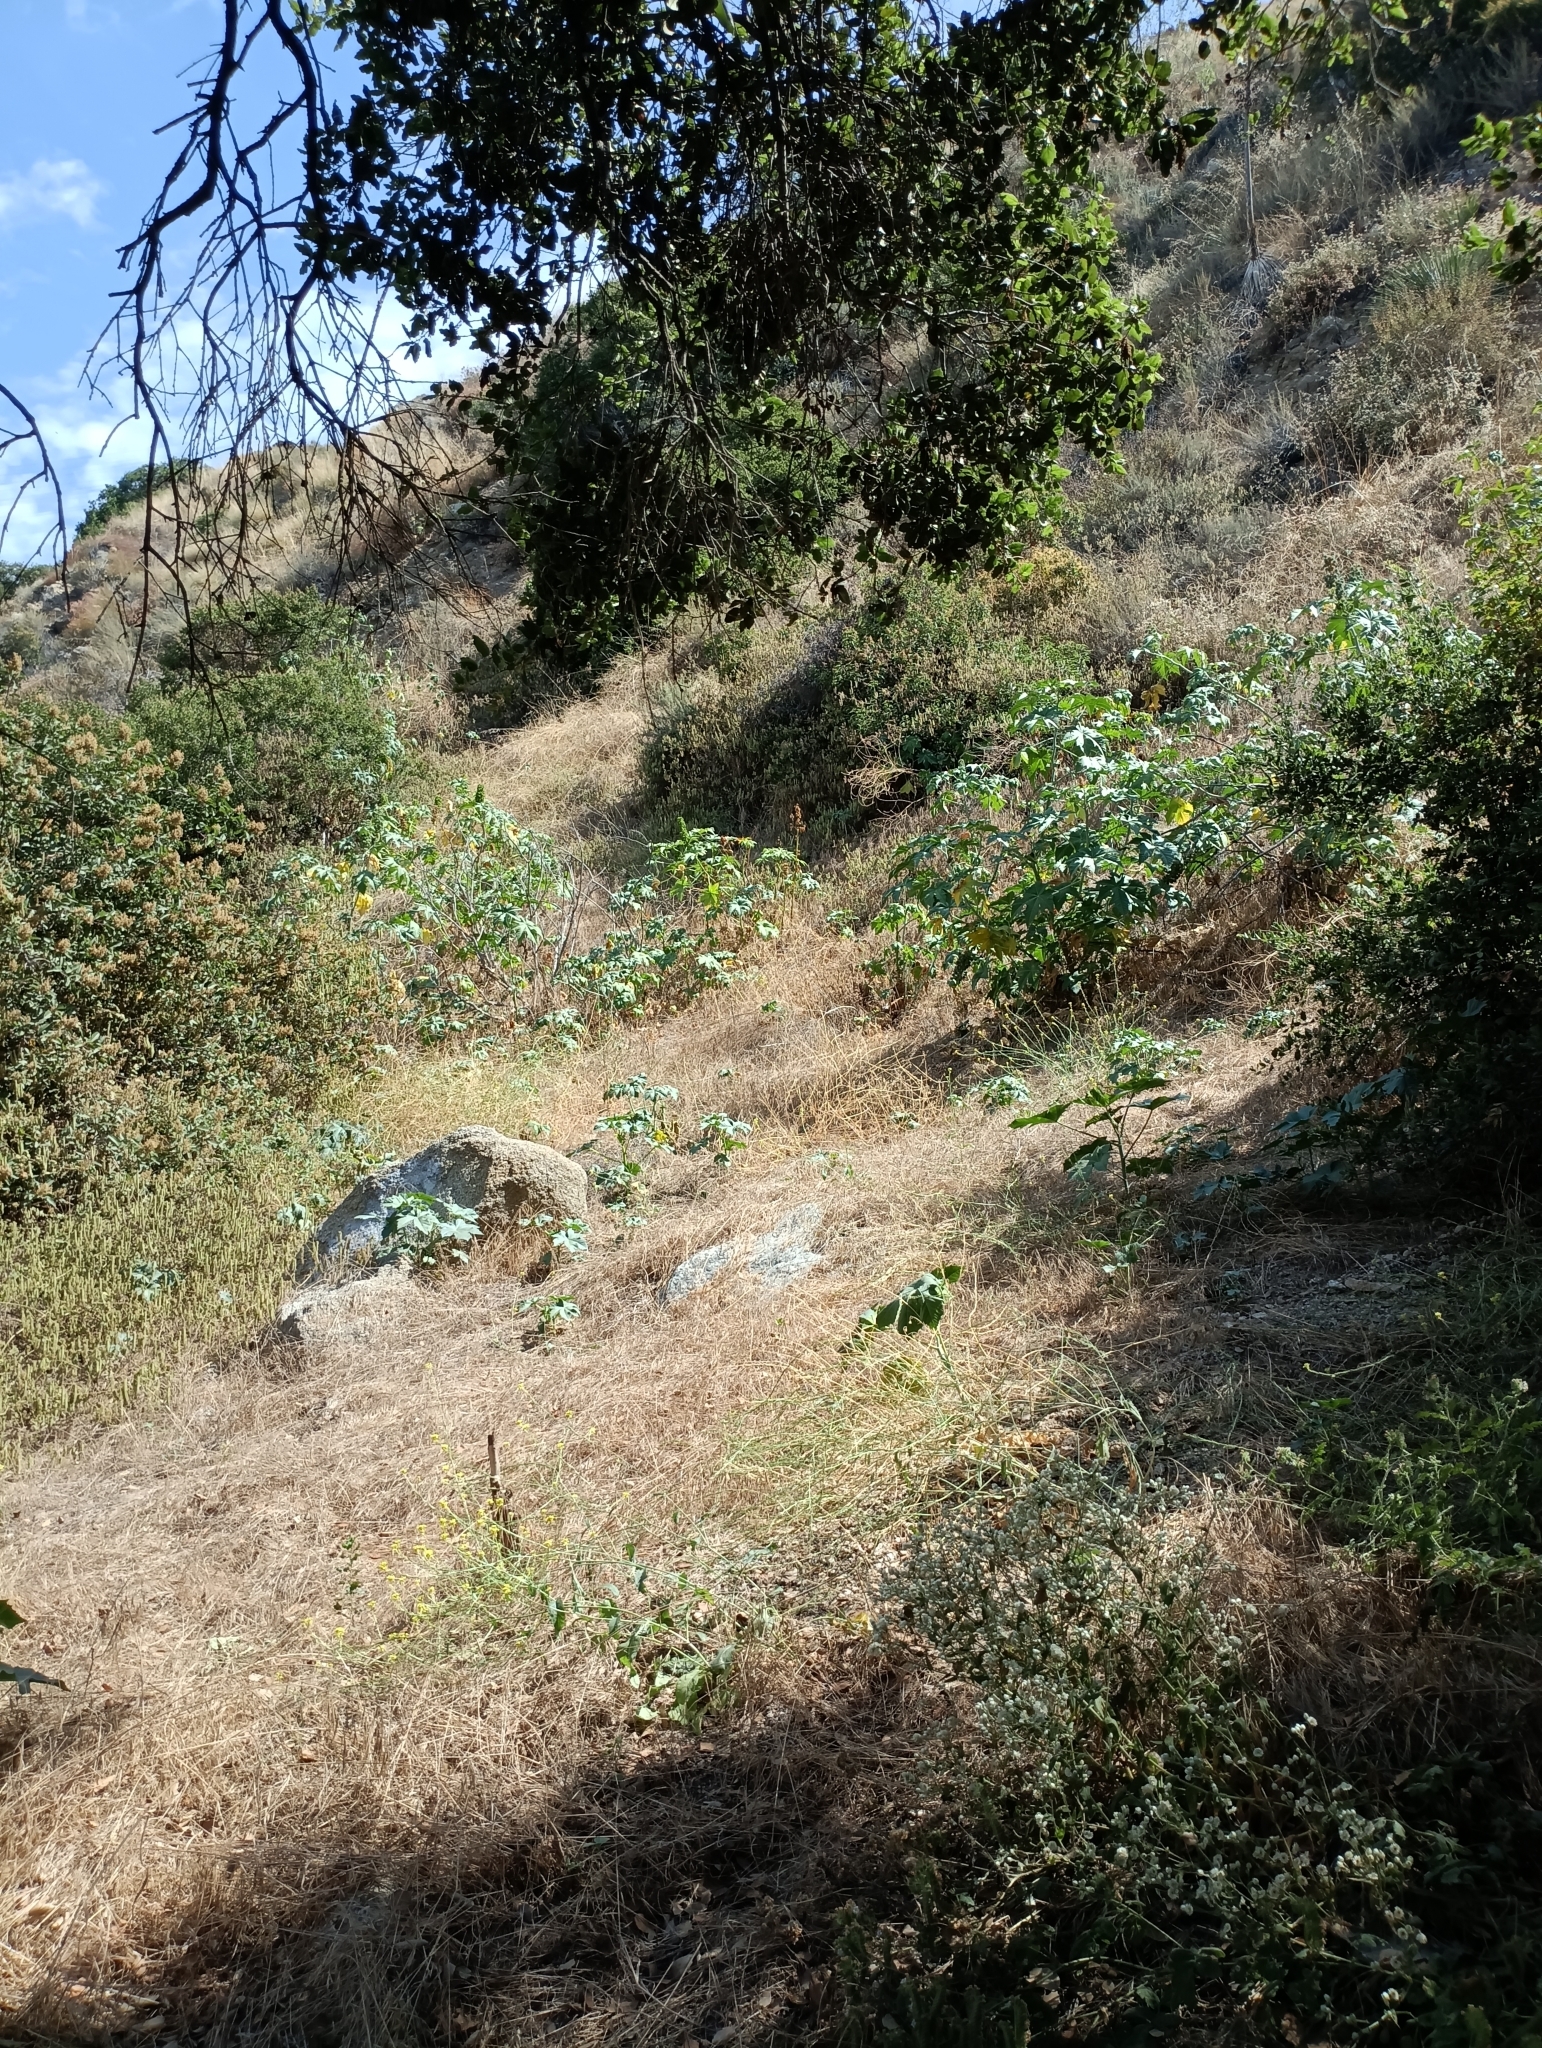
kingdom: Plantae
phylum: Tracheophyta
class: Magnoliopsida
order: Malpighiales
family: Euphorbiaceae
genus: Ricinus
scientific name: Ricinus communis
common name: Castor-oil-plant
